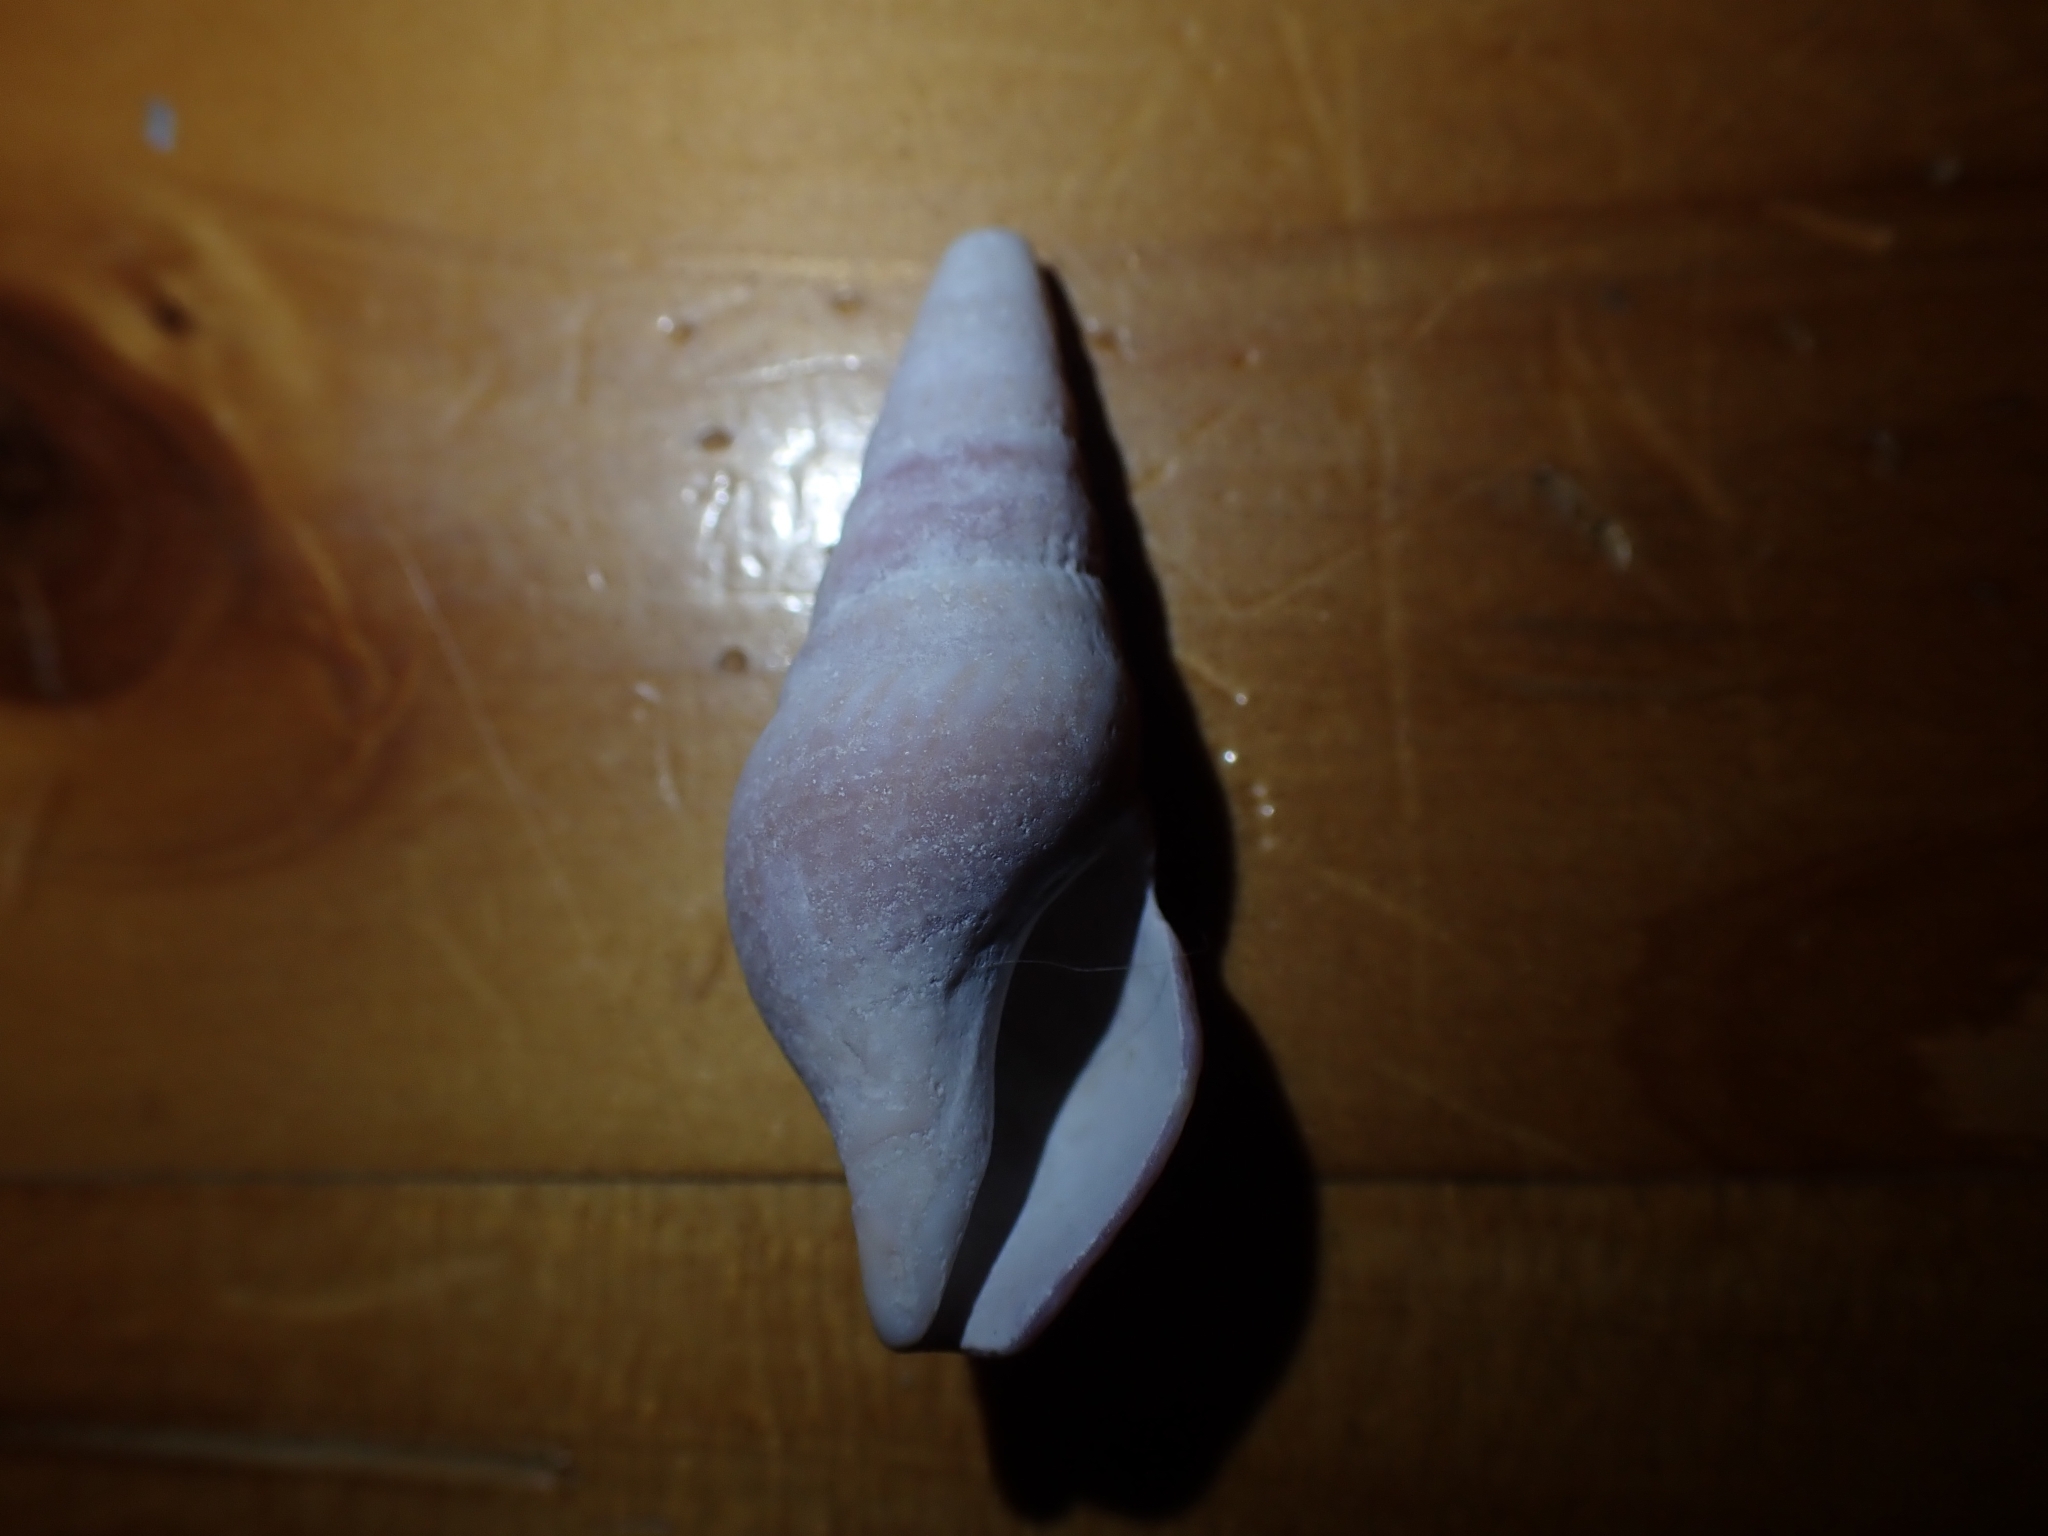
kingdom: Animalia
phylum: Mollusca
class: Gastropoda
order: Neogastropoda
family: Borsoniidae
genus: Phenatoma
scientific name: Phenatoma roseum
